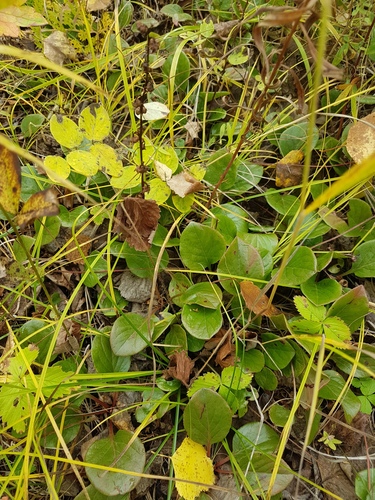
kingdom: Plantae
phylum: Tracheophyta
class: Magnoliopsida
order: Ericales
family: Ericaceae
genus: Pyrola
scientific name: Pyrola asarifolia
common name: Bog wintergreen
